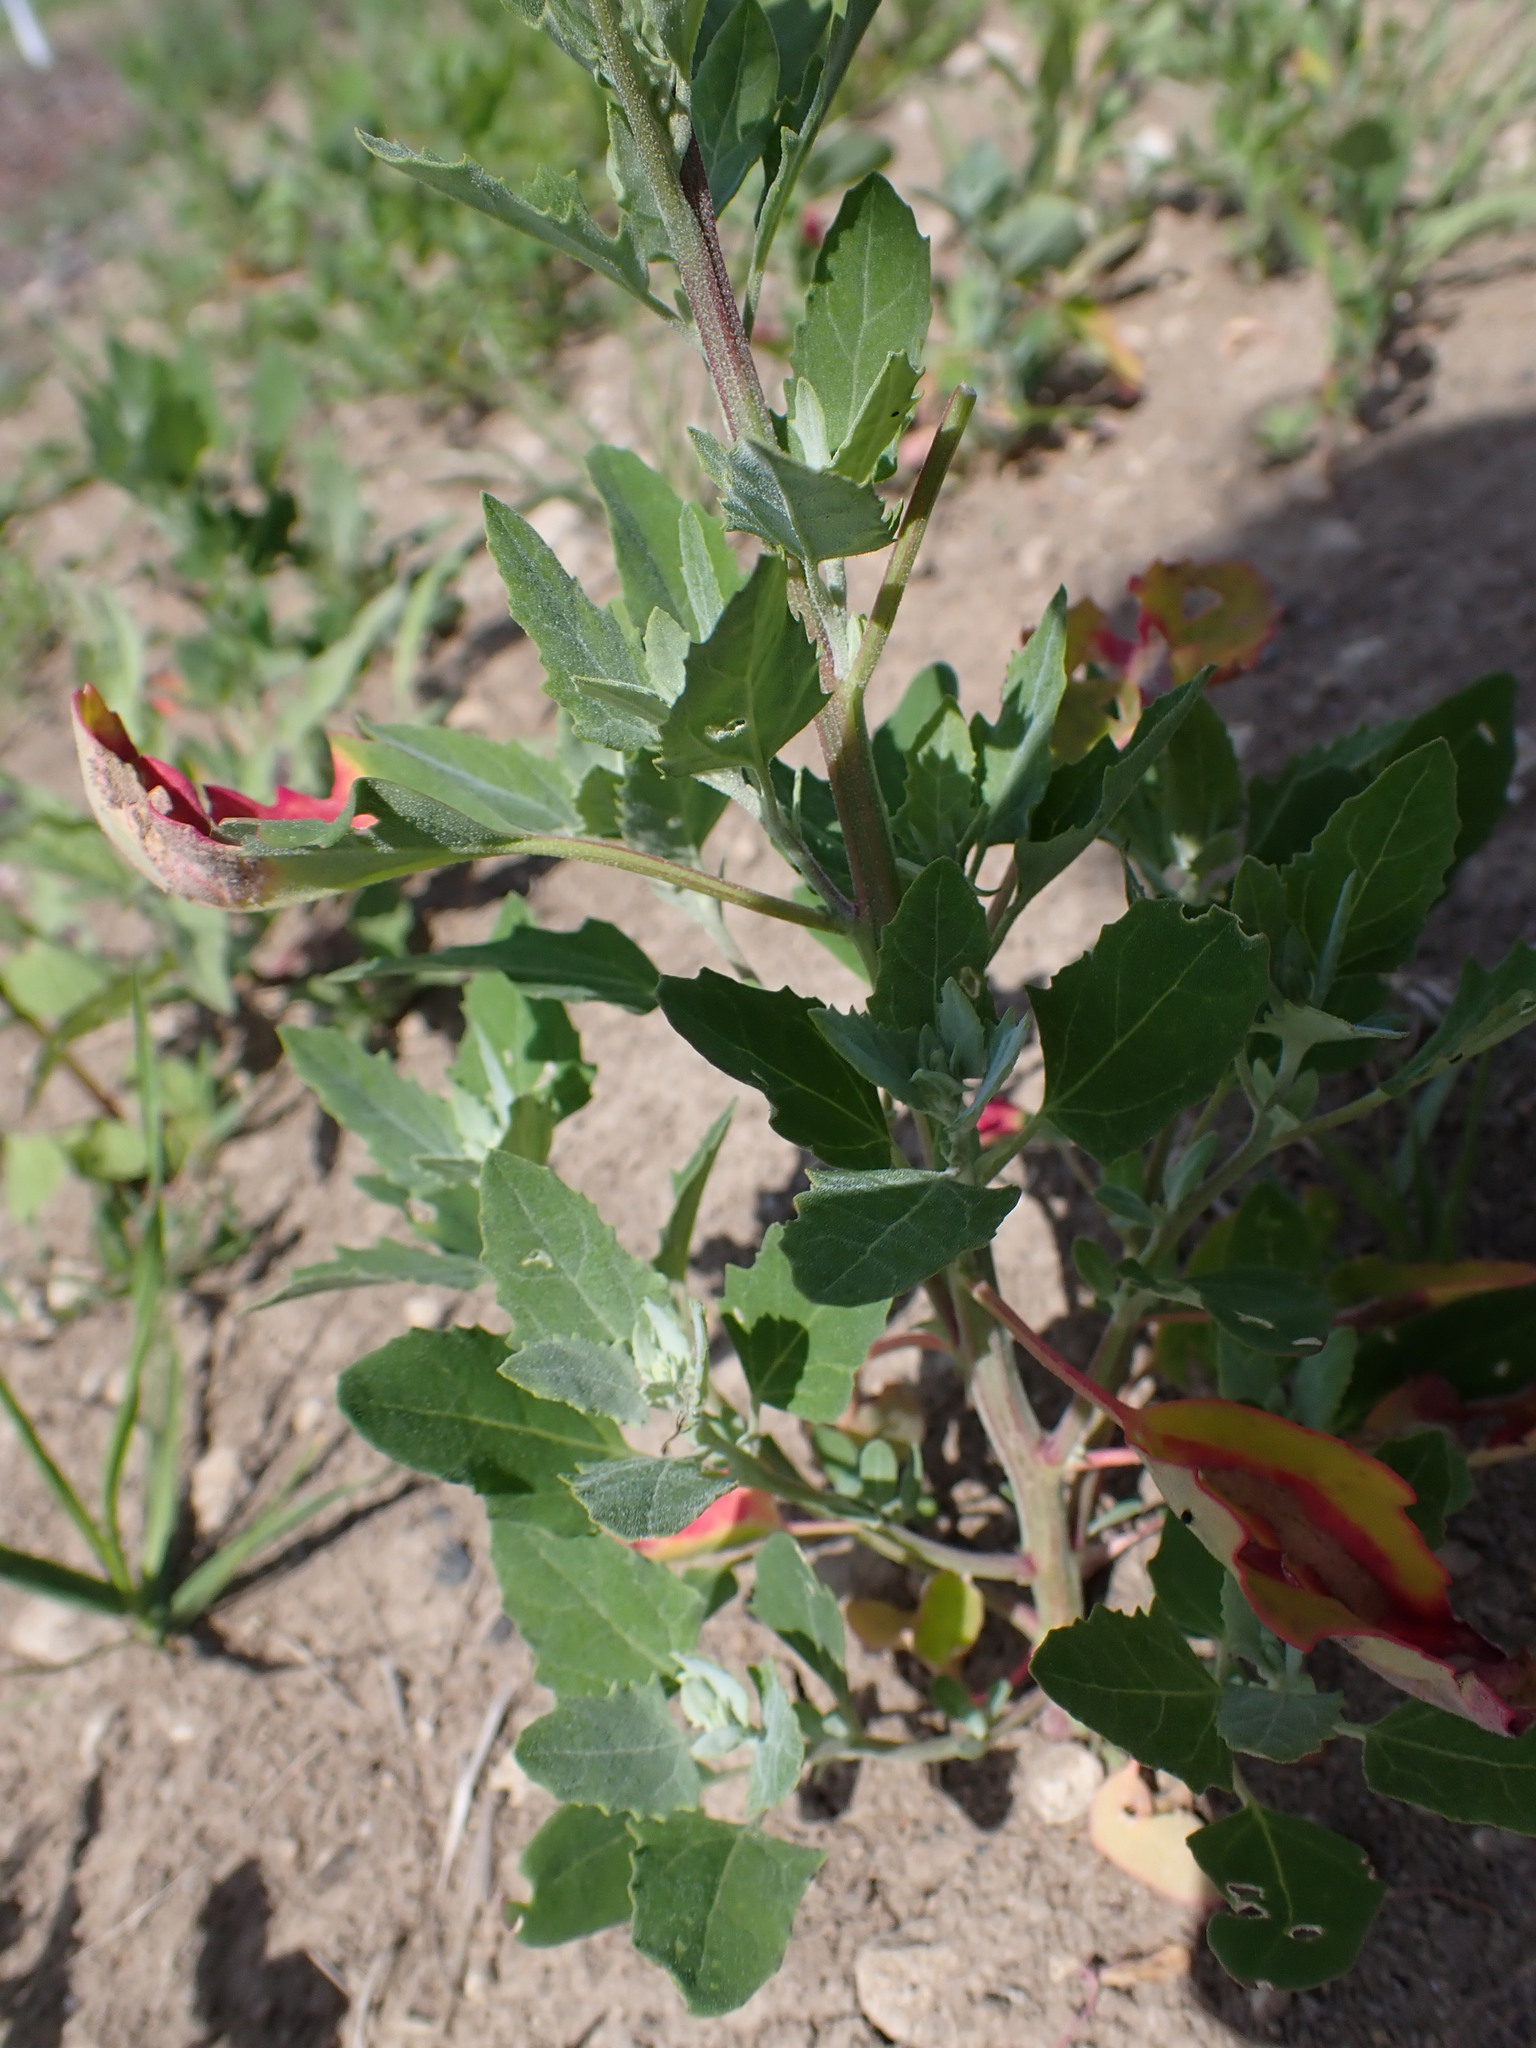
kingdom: Chromista
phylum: Oomycota
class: Peronosporea
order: Peronosporales
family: Peronosporaceae
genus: Peronospora
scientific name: Peronospora farinosa
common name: Beet downy mildew
